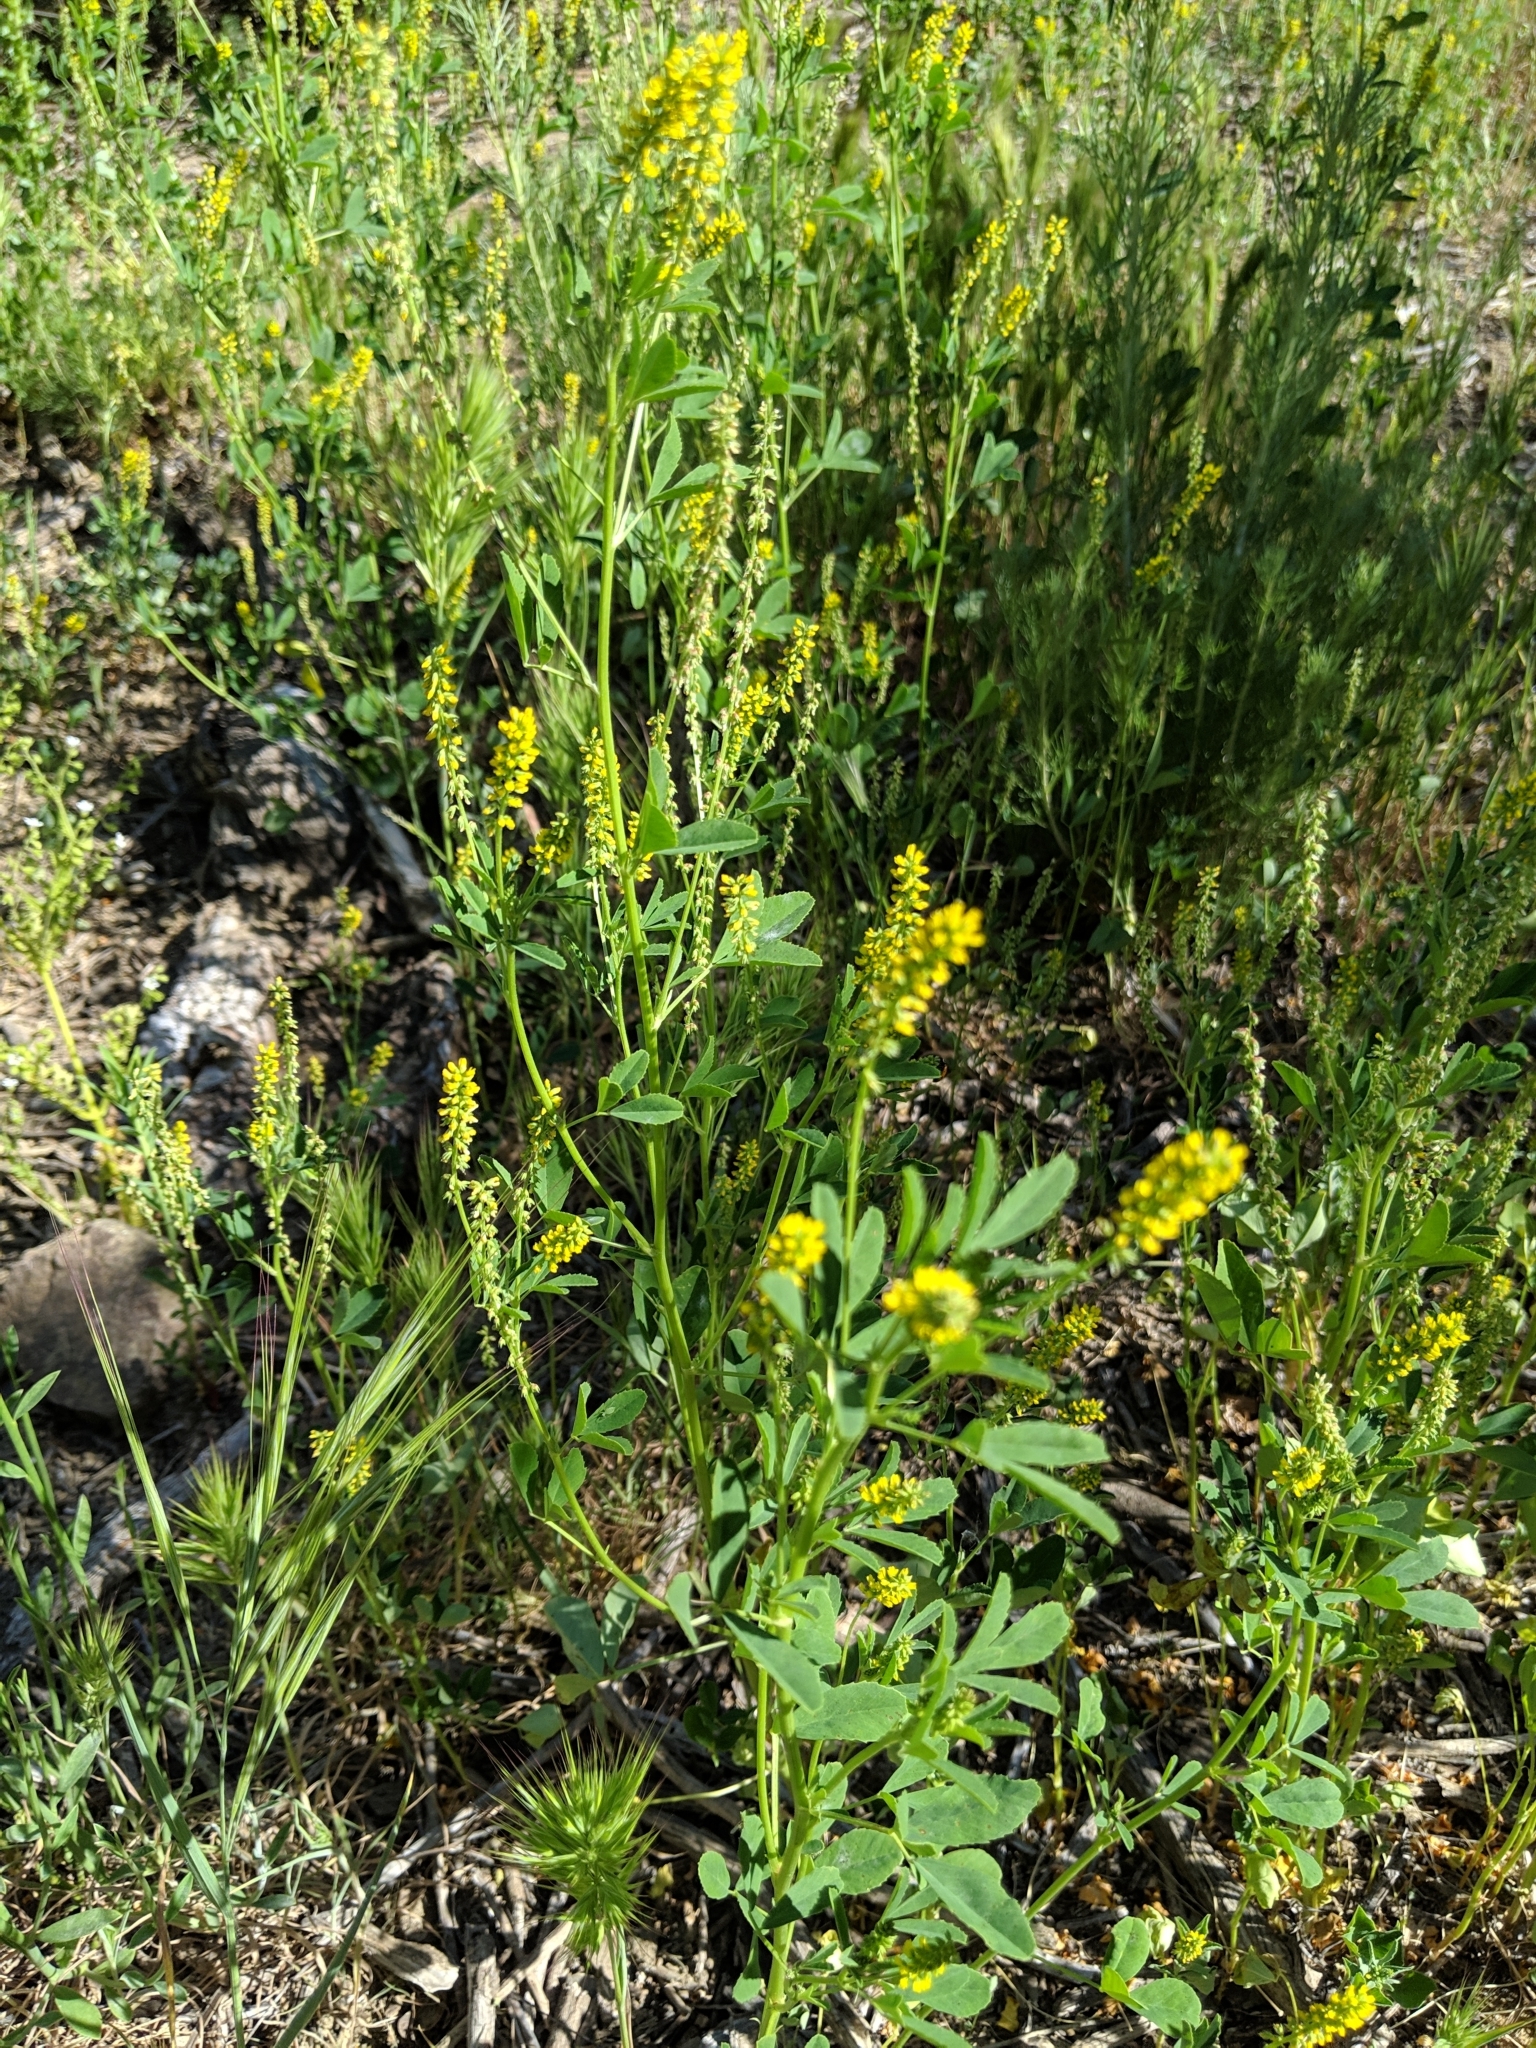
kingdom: Plantae
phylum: Tracheophyta
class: Magnoliopsida
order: Fabales
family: Fabaceae
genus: Melilotus
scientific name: Melilotus indicus
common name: Small melilot
